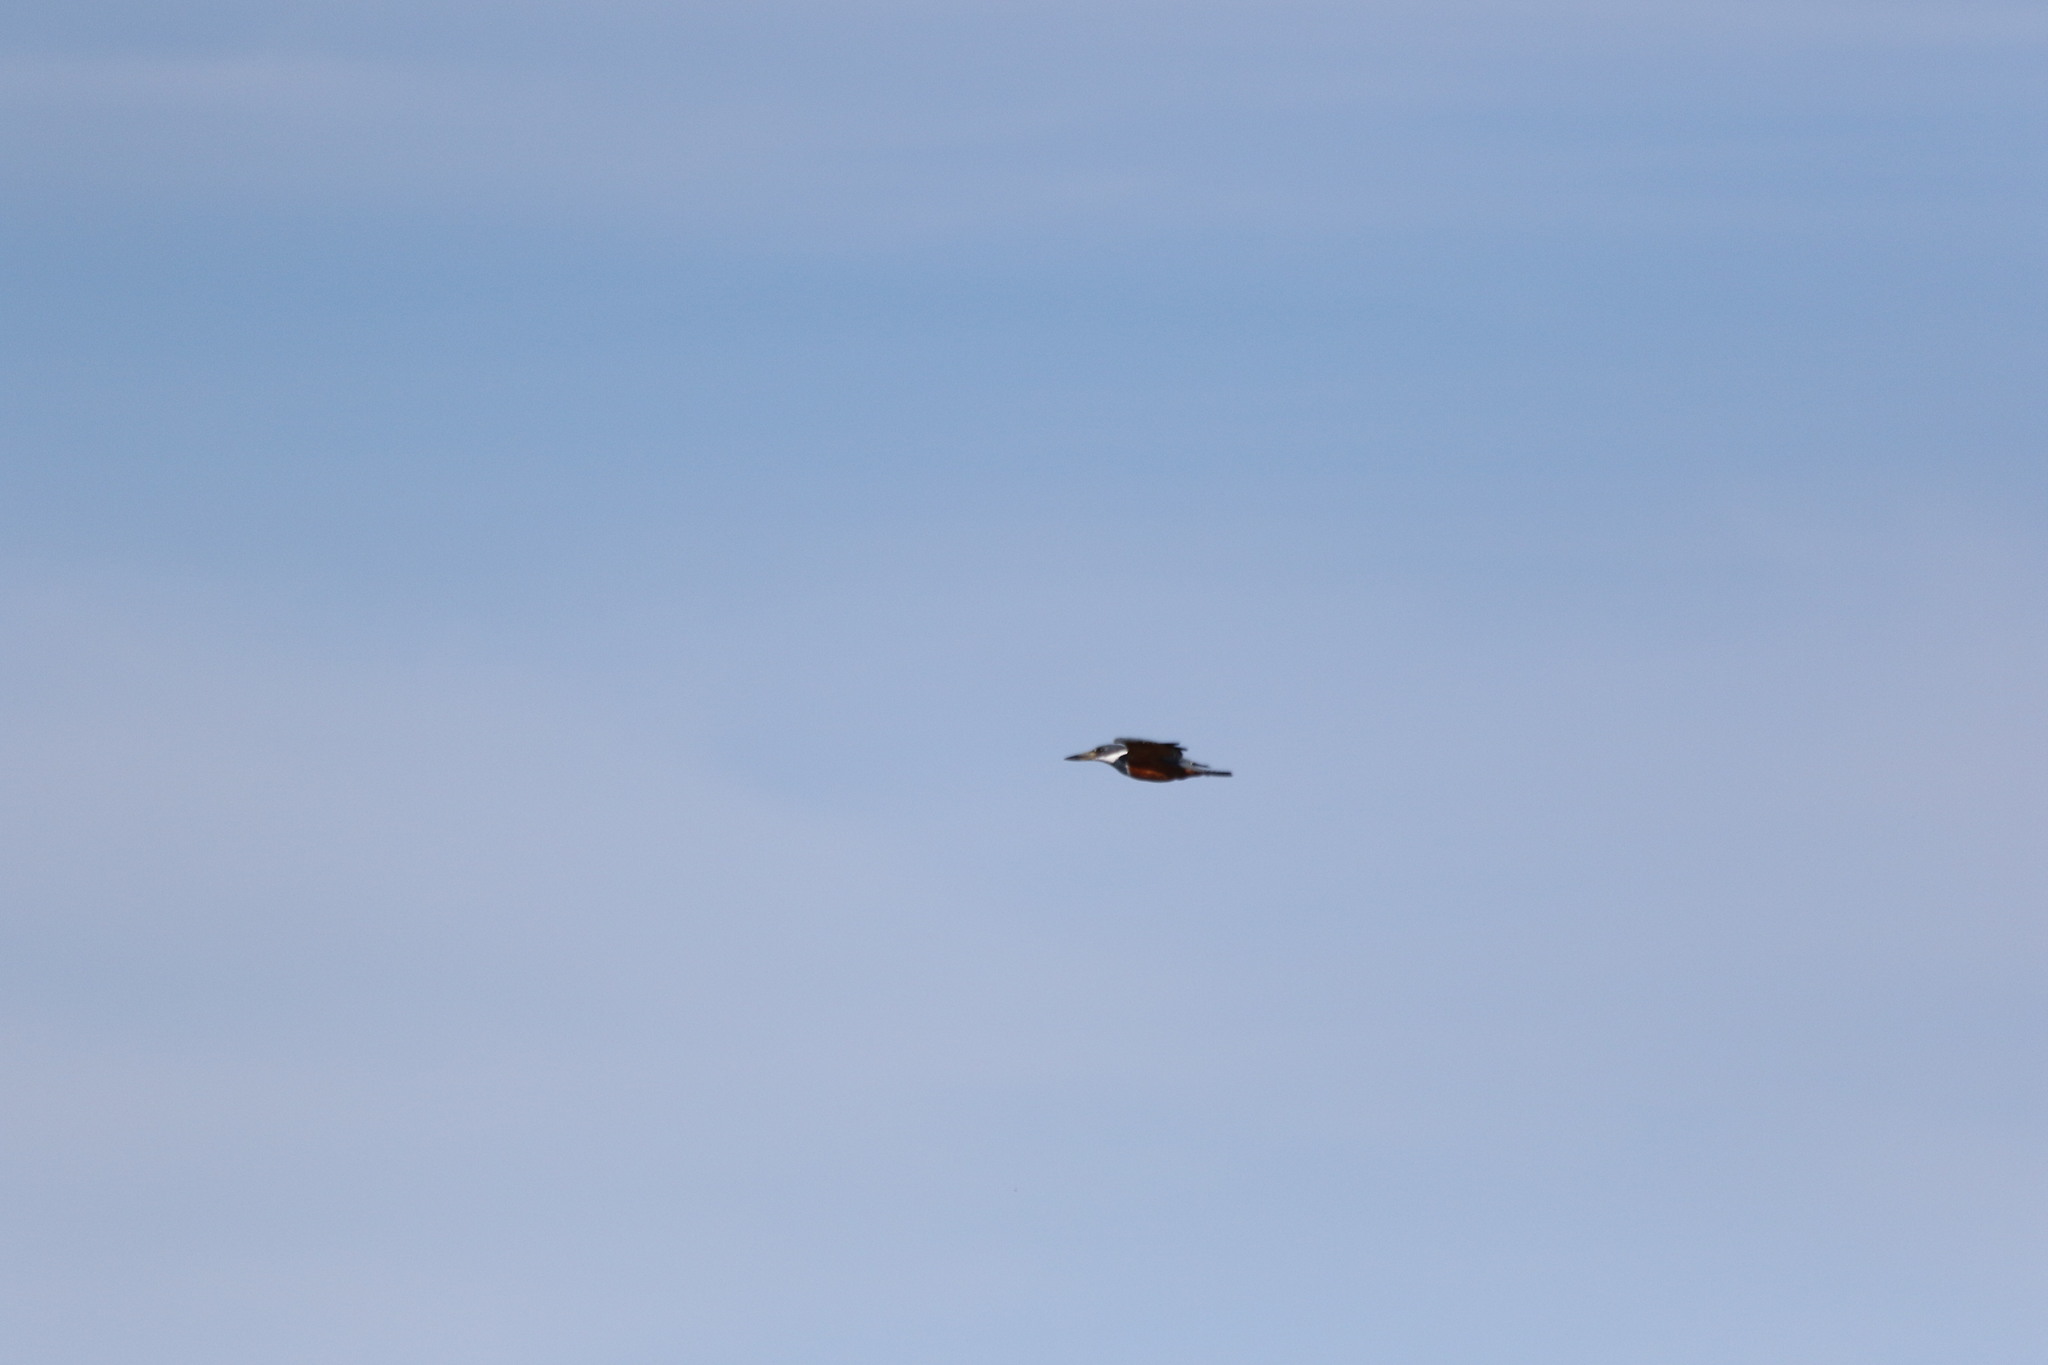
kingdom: Animalia
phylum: Chordata
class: Aves
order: Coraciiformes
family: Alcedinidae
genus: Megaceryle
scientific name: Megaceryle torquata
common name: Ringed kingfisher
